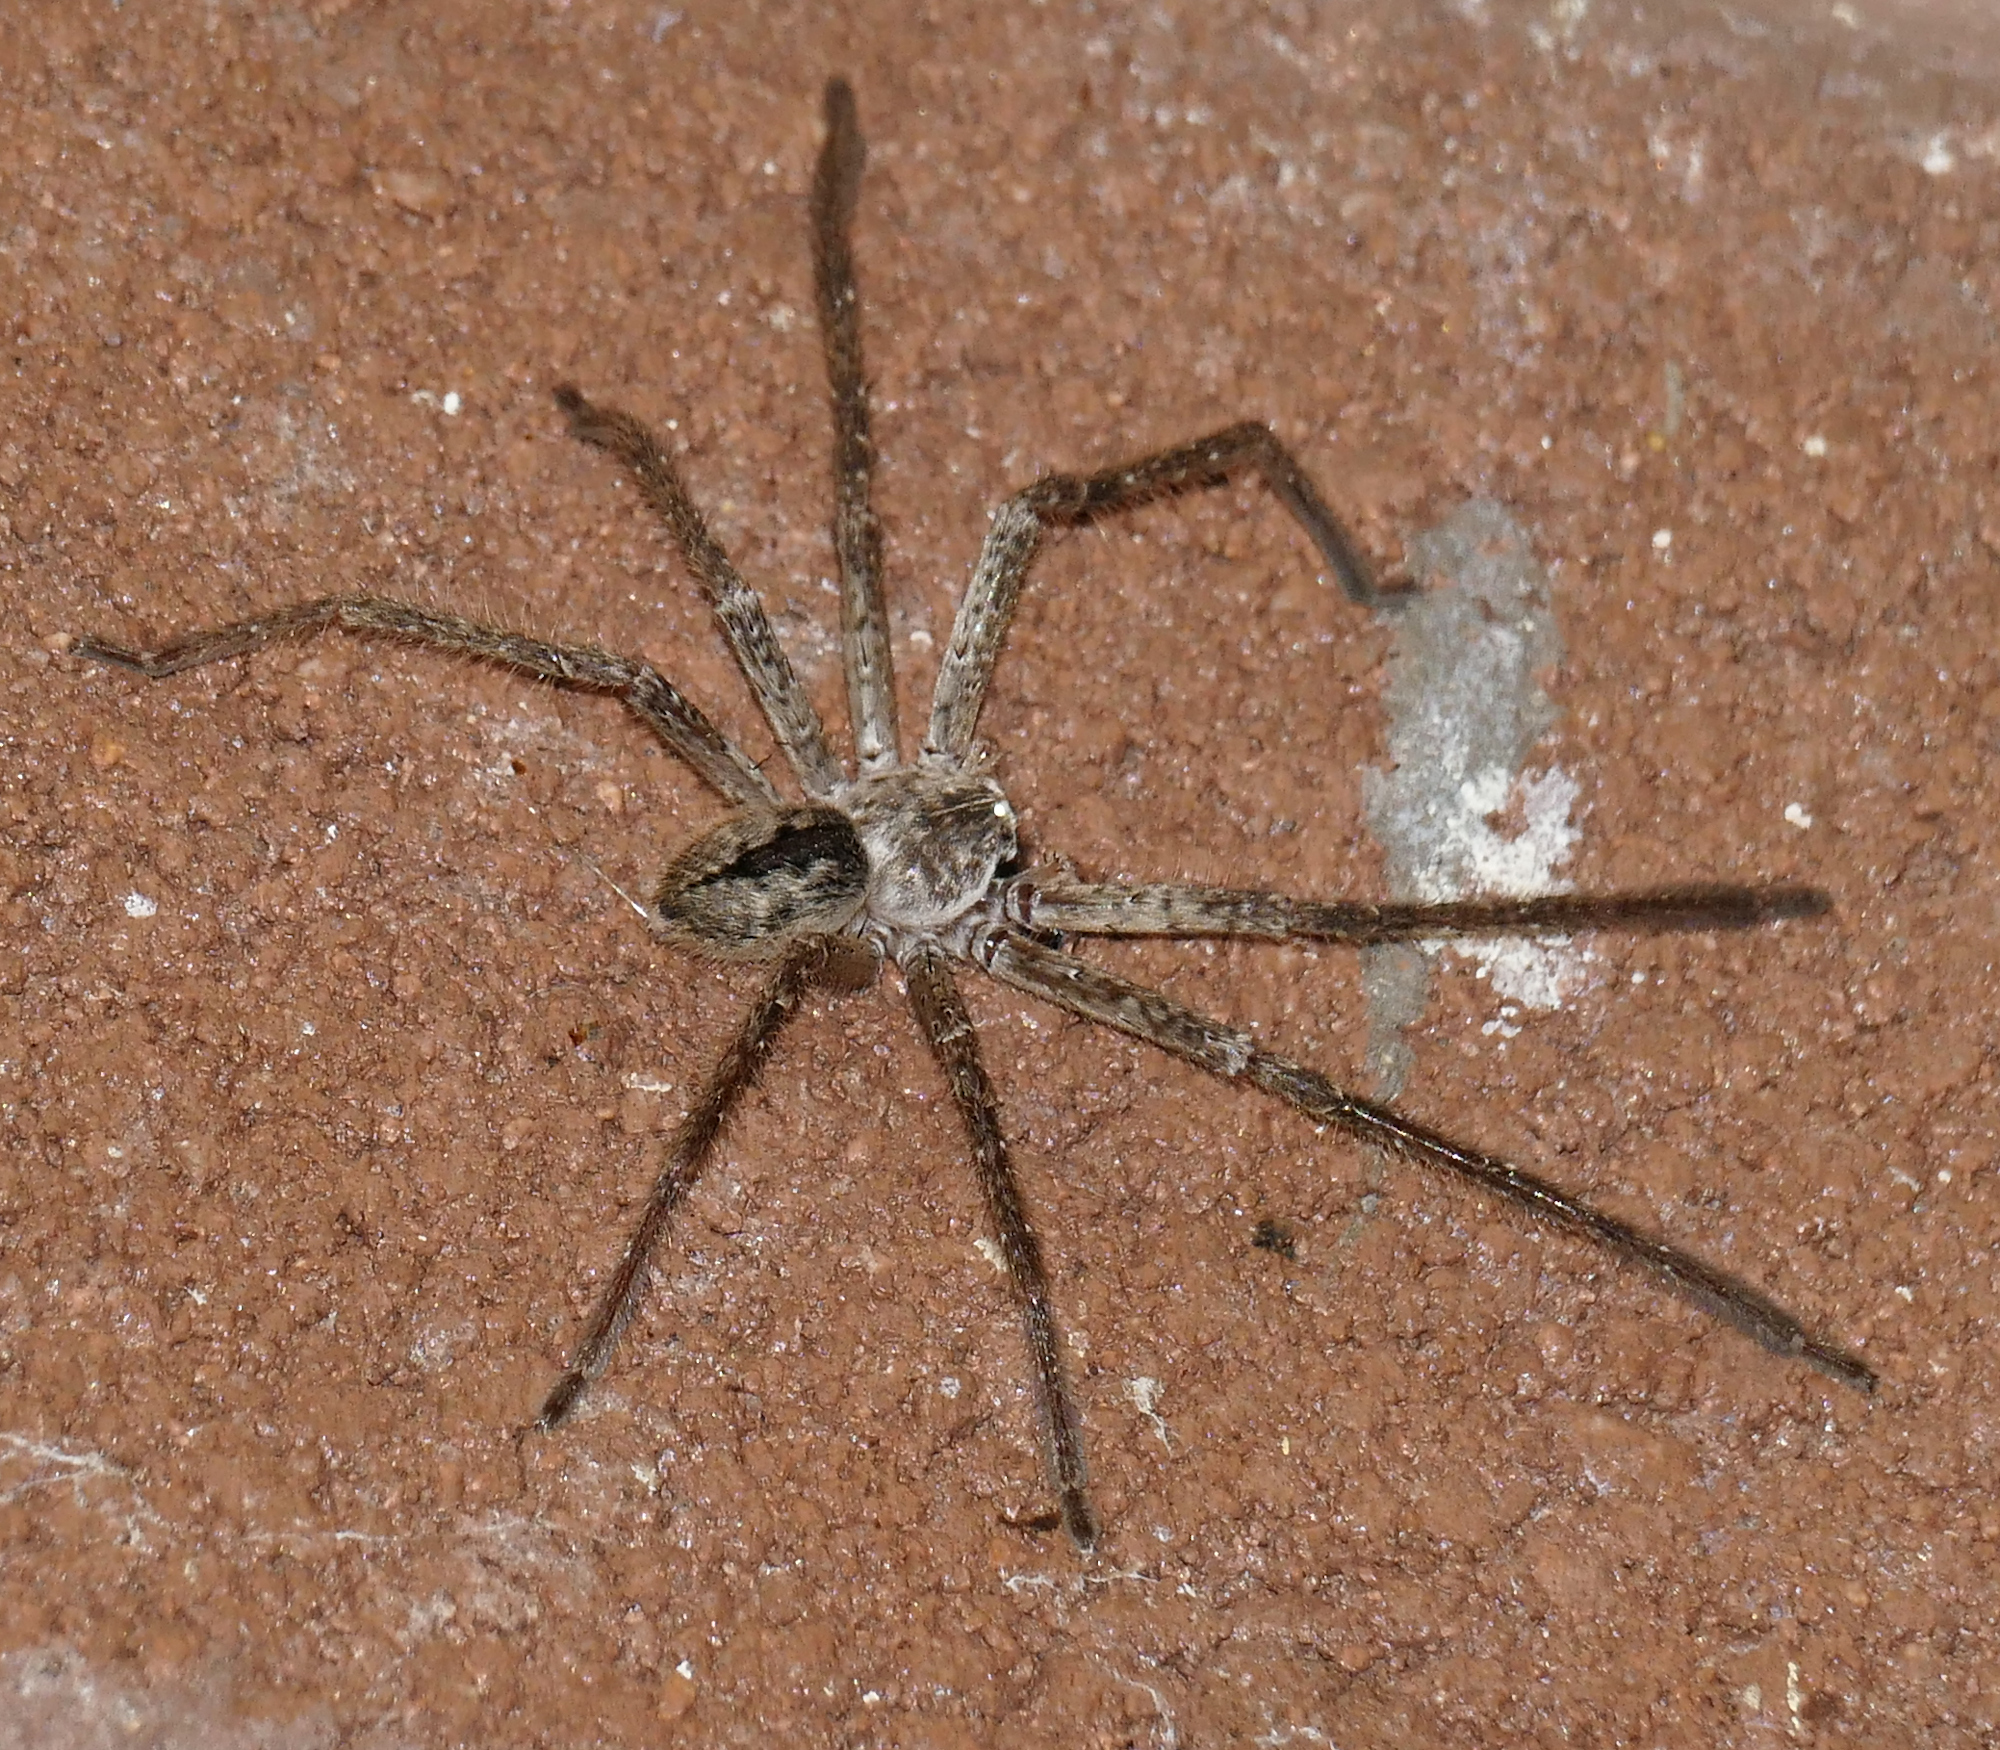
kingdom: Animalia
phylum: Arthropoda
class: Arachnida
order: Araneae
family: Sparassidae
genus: Olios
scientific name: Olios giganteus
